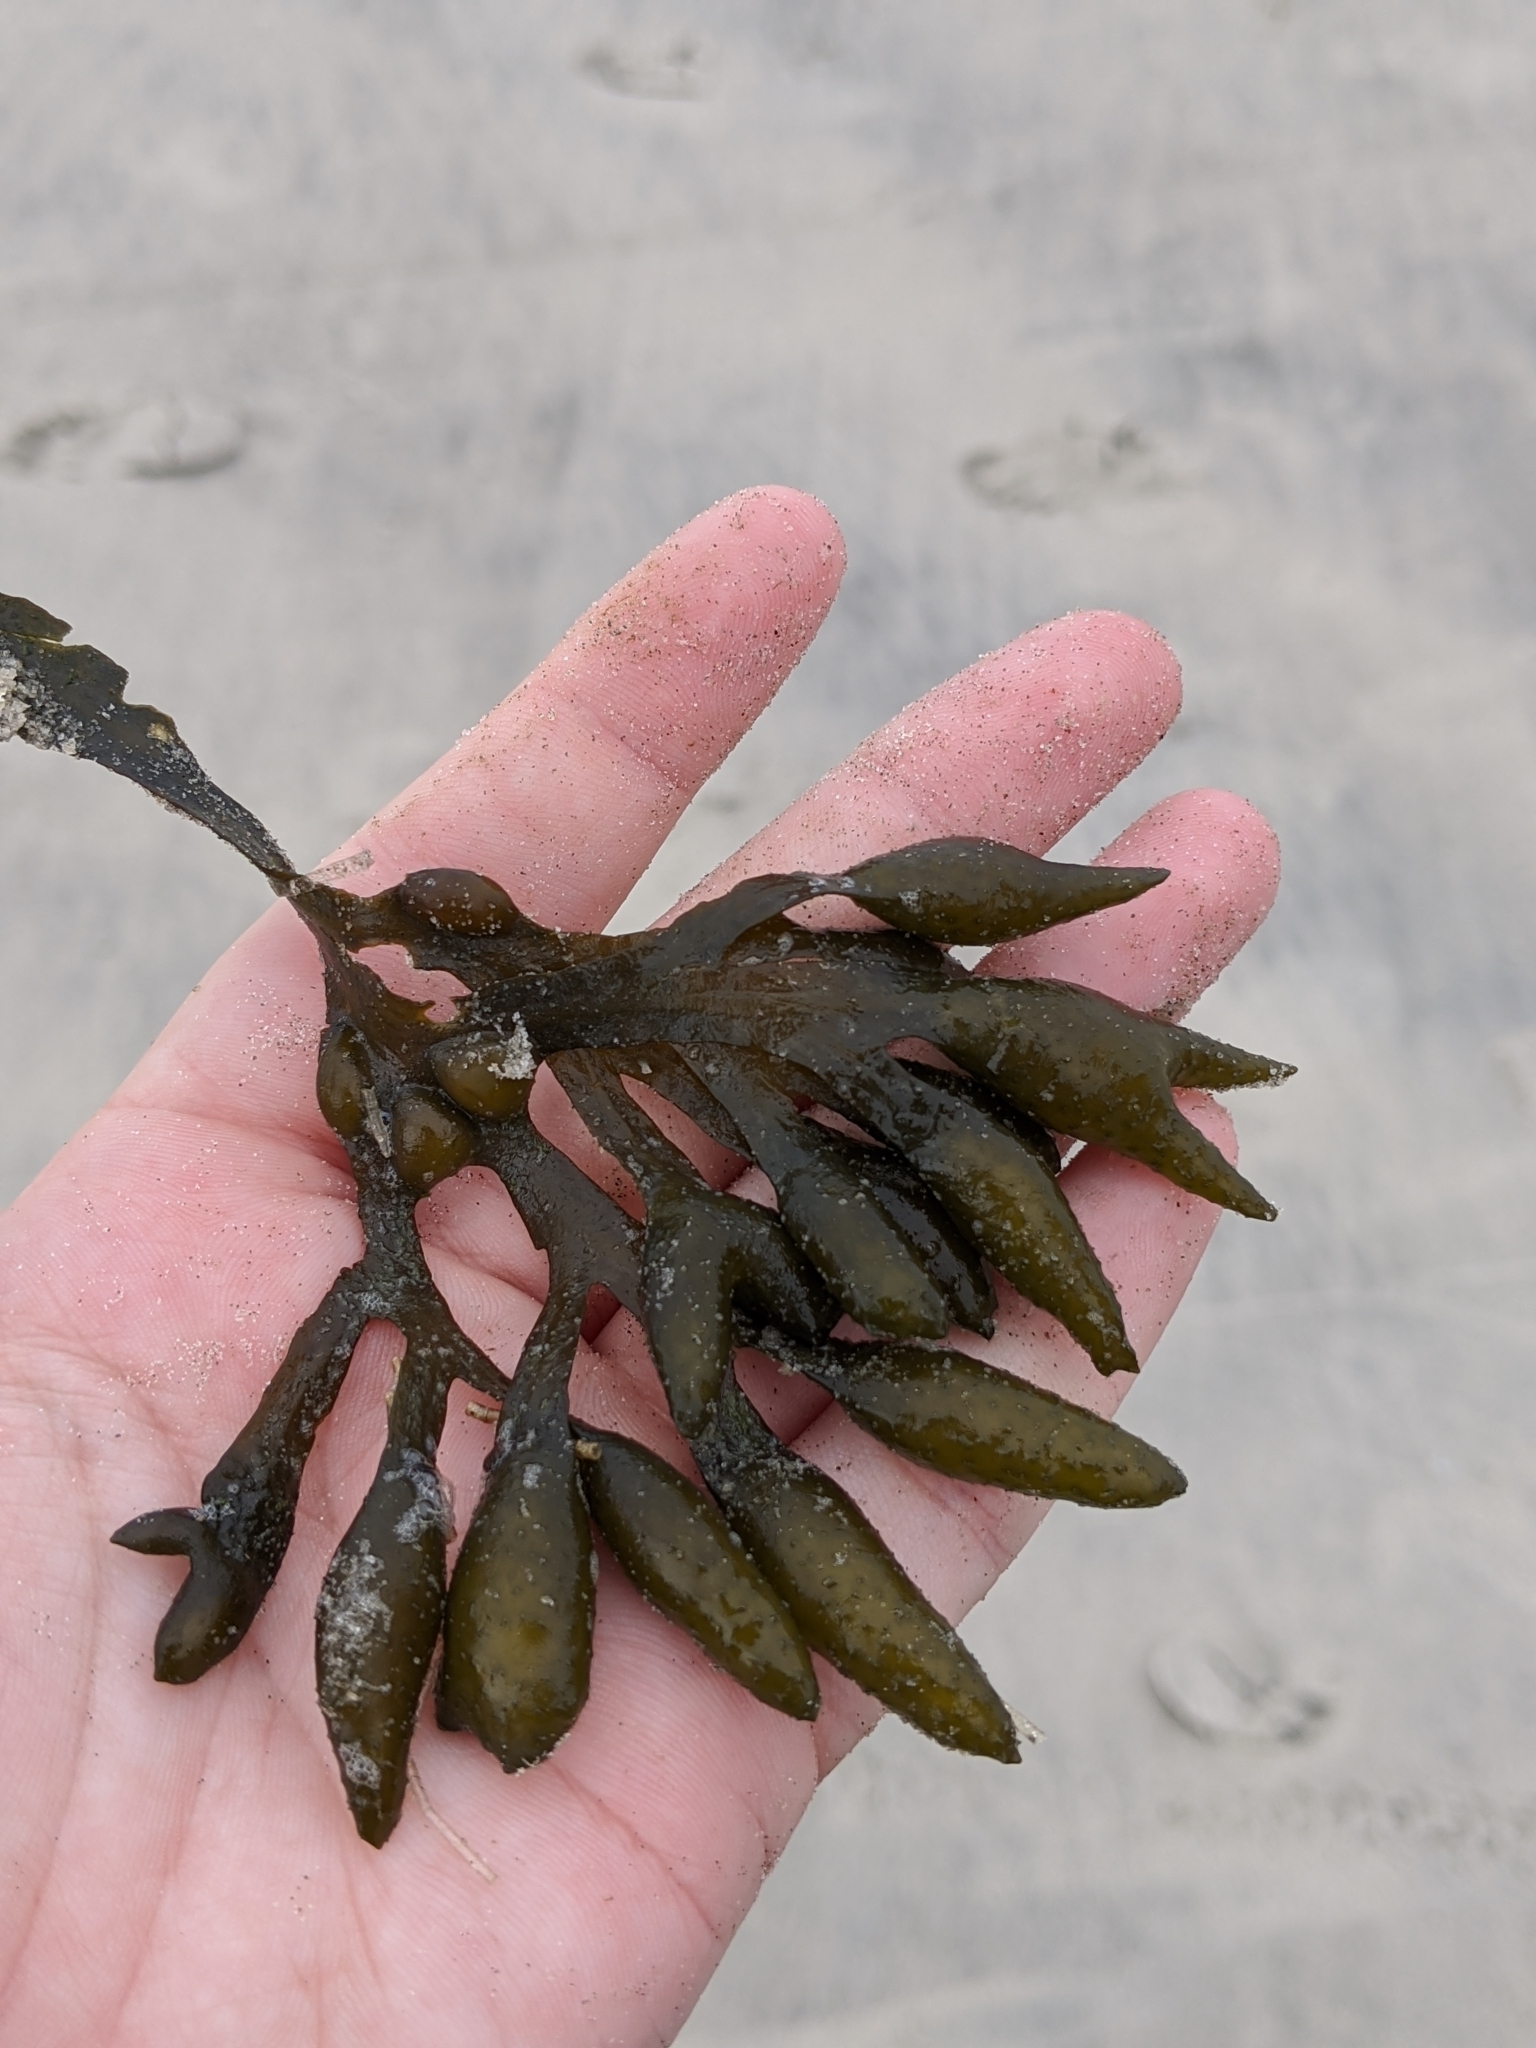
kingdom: Chromista
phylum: Ochrophyta
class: Phaeophyceae
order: Fucales
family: Fucaceae
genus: Fucus
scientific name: Fucus vesiculosus
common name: Bladder wrack
